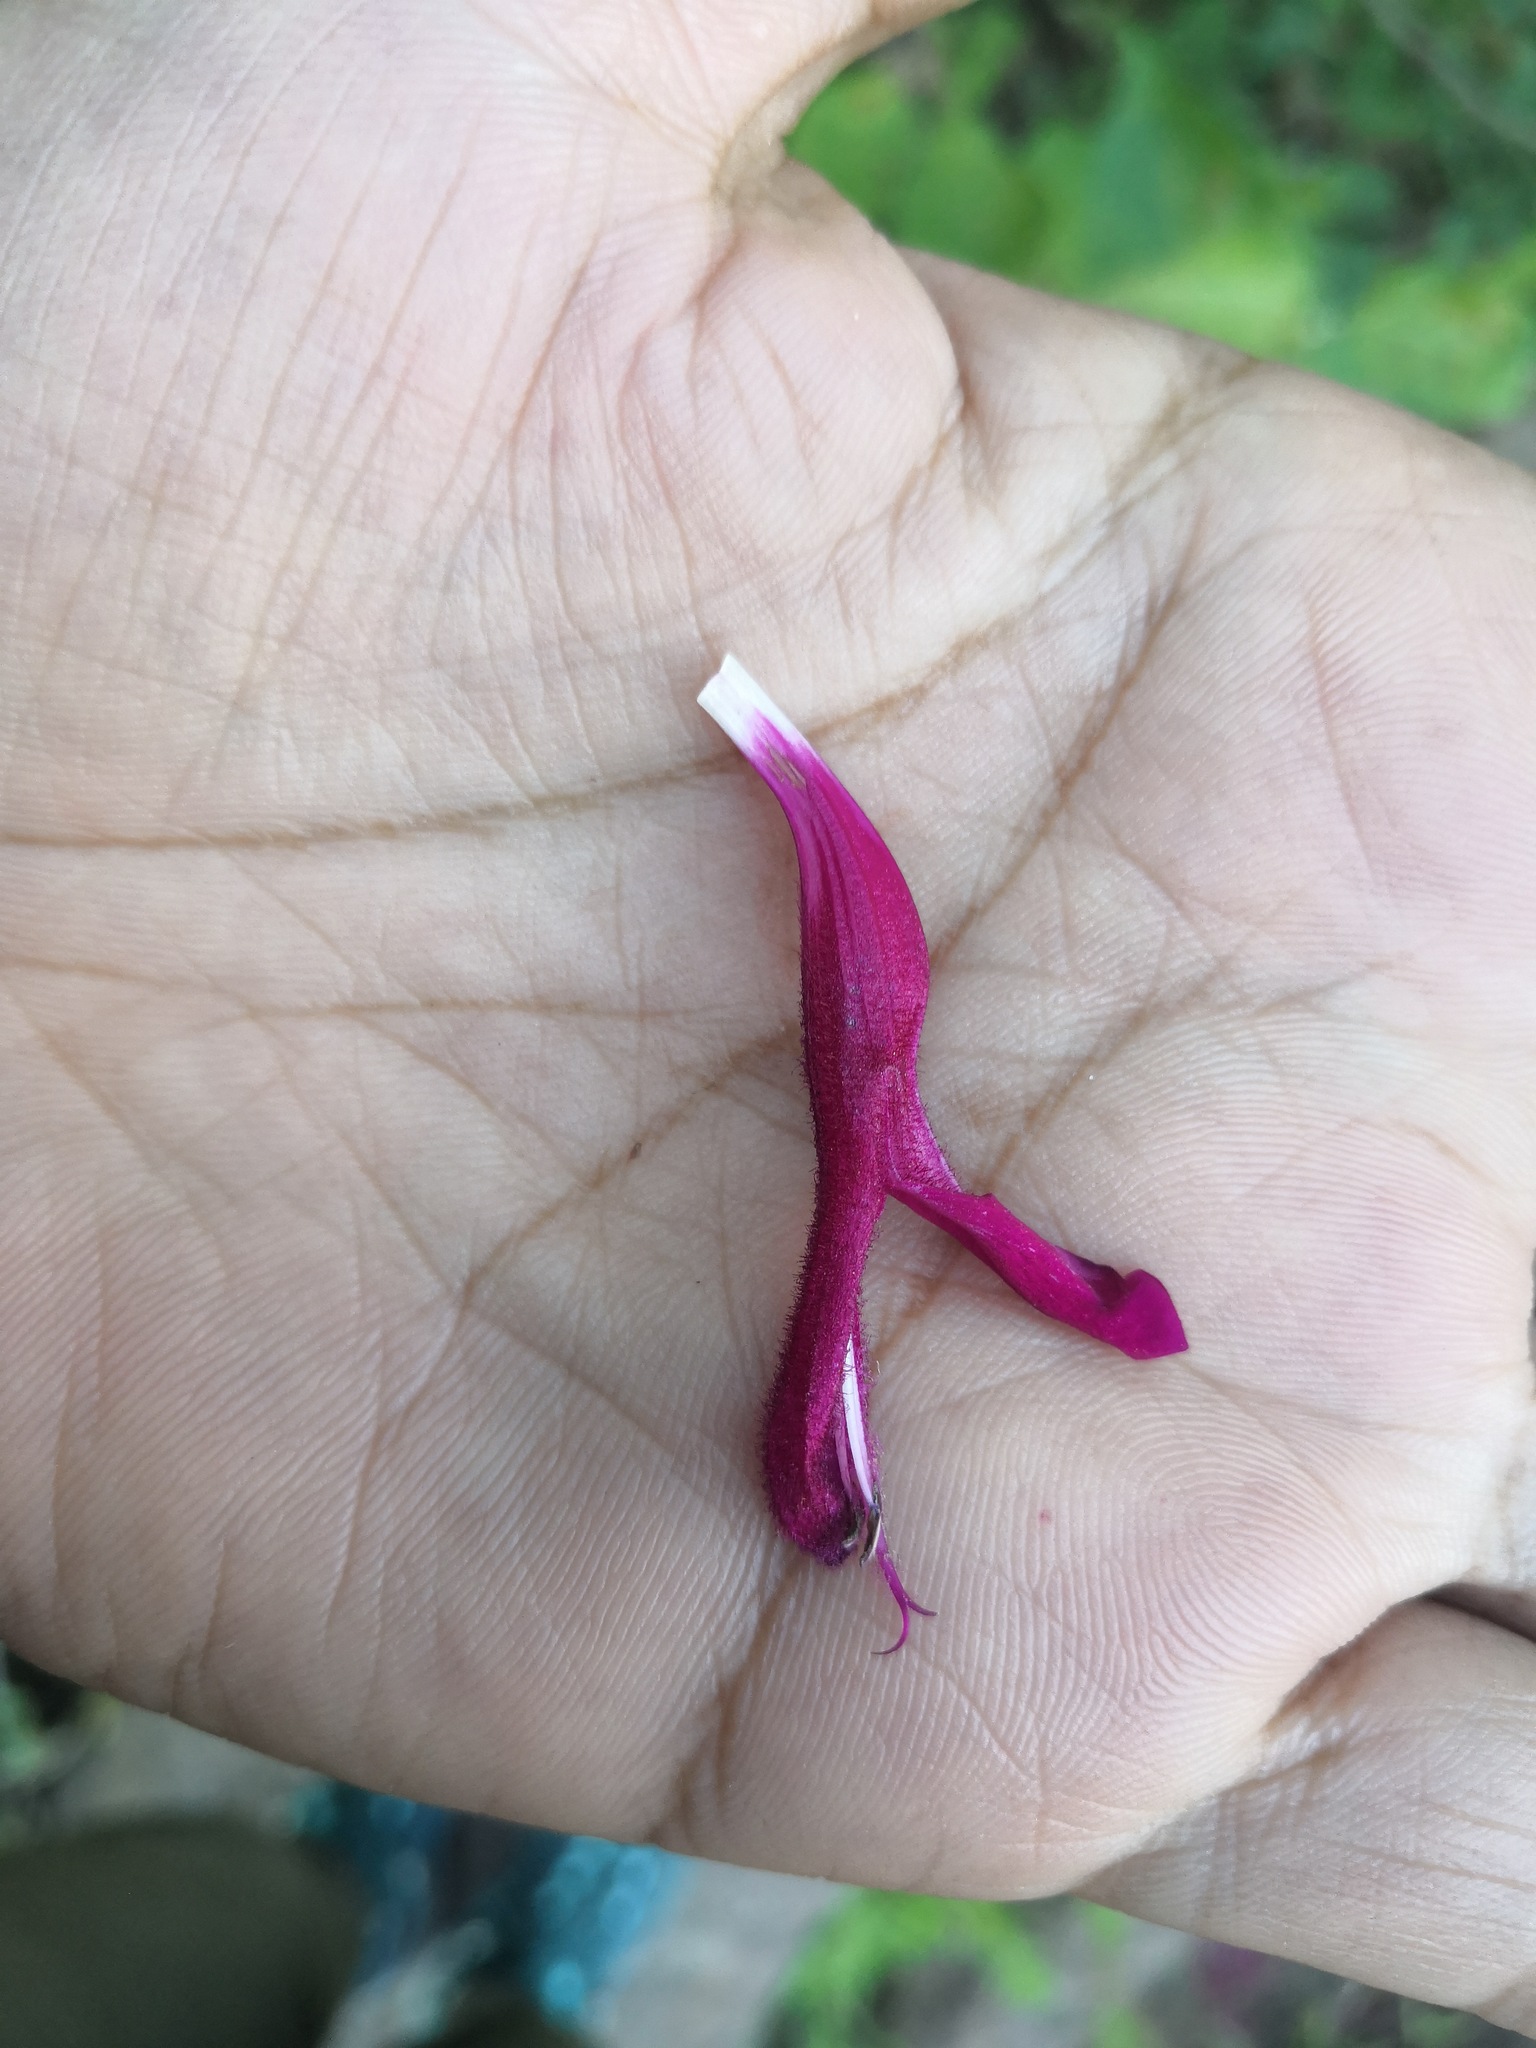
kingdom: Plantae
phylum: Tracheophyta
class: Magnoliopsida
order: Lamiales
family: Lamiaceae
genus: Salvia
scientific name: Salvia rosei
